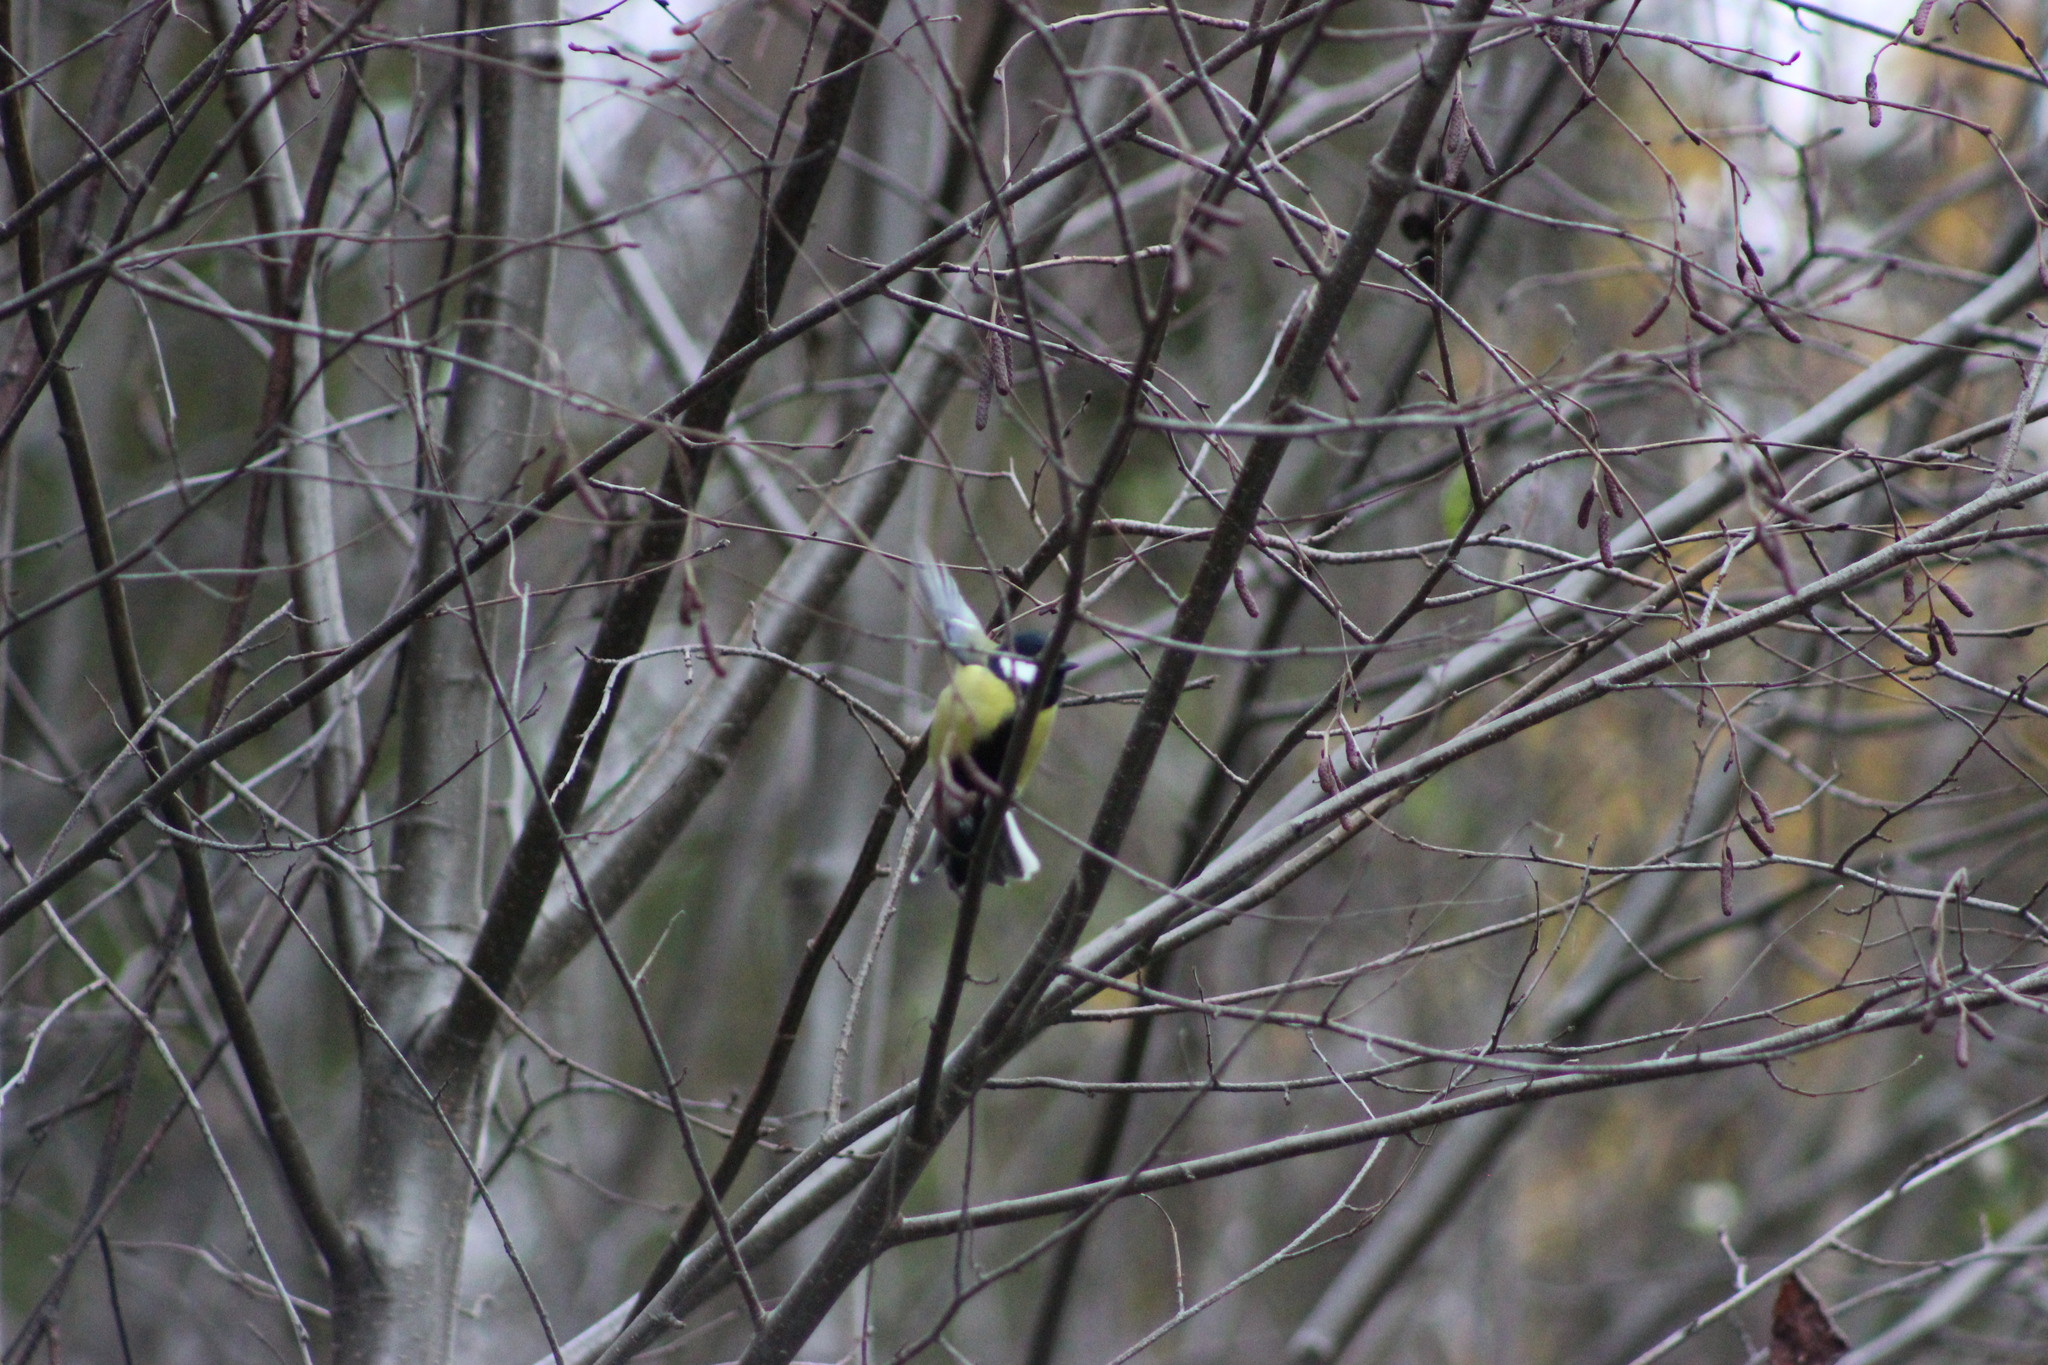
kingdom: Animalia
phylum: Chordata
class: Aves
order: Passeriformes
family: Paridae
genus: Parus
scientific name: Parus major
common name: Great tit
